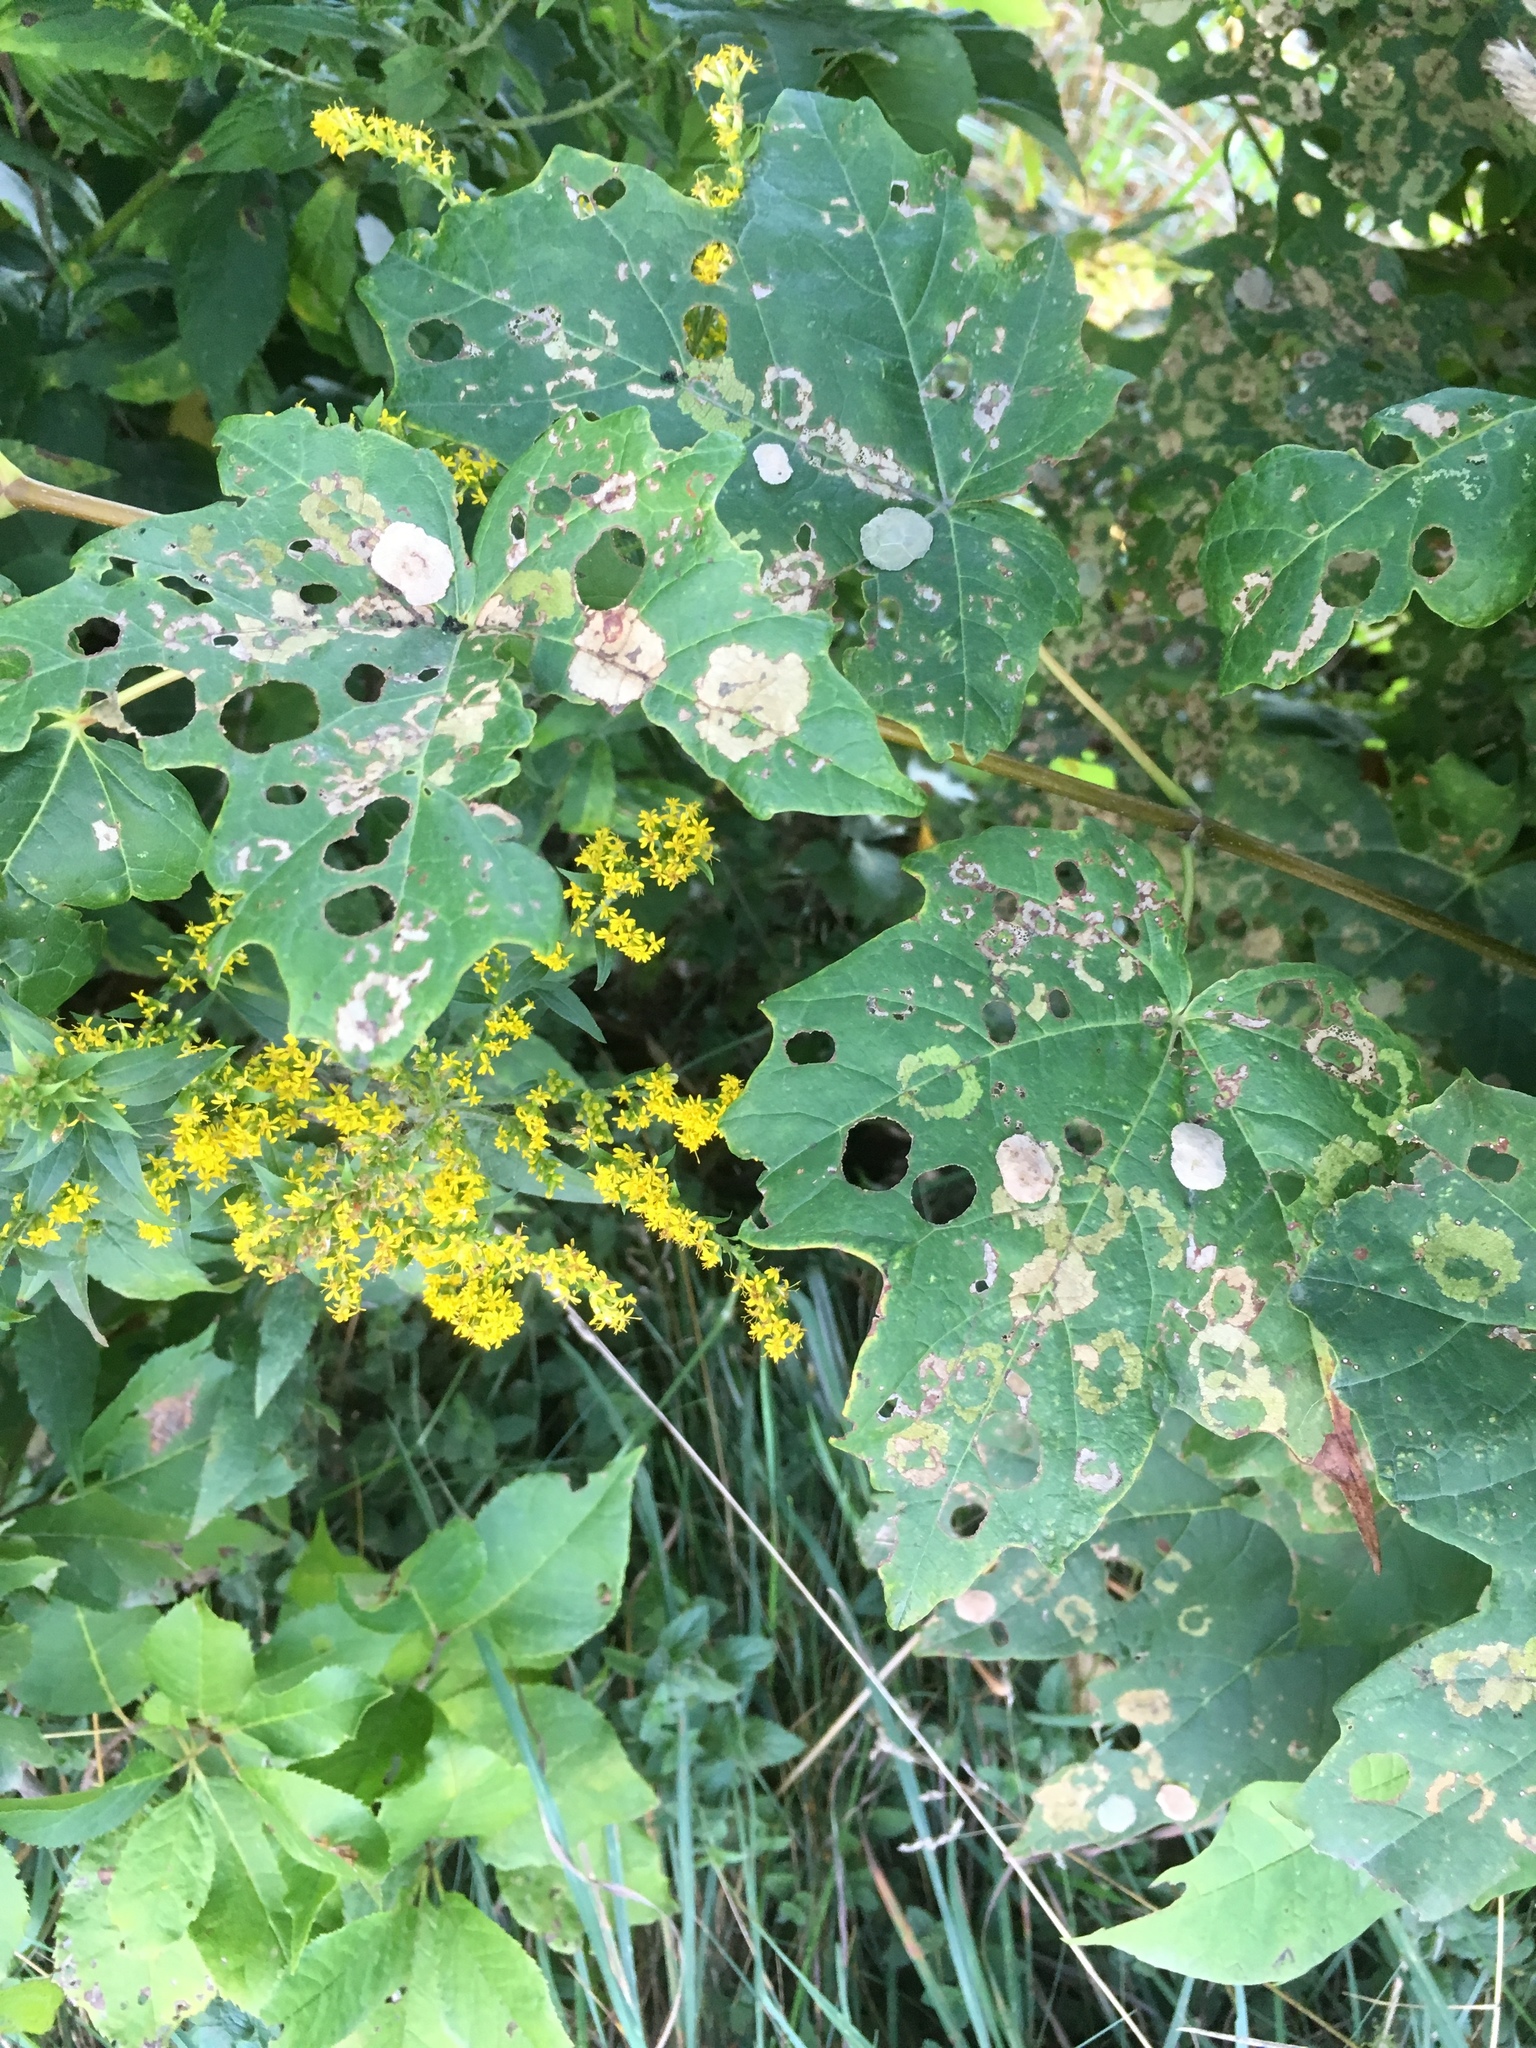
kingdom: Animalia
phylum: Arthropoda
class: Insecta
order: Lepidoptera
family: Incurvariidae
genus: Paraclemensia
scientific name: Paraclemensia acerifoliella
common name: Maple leafcutter
